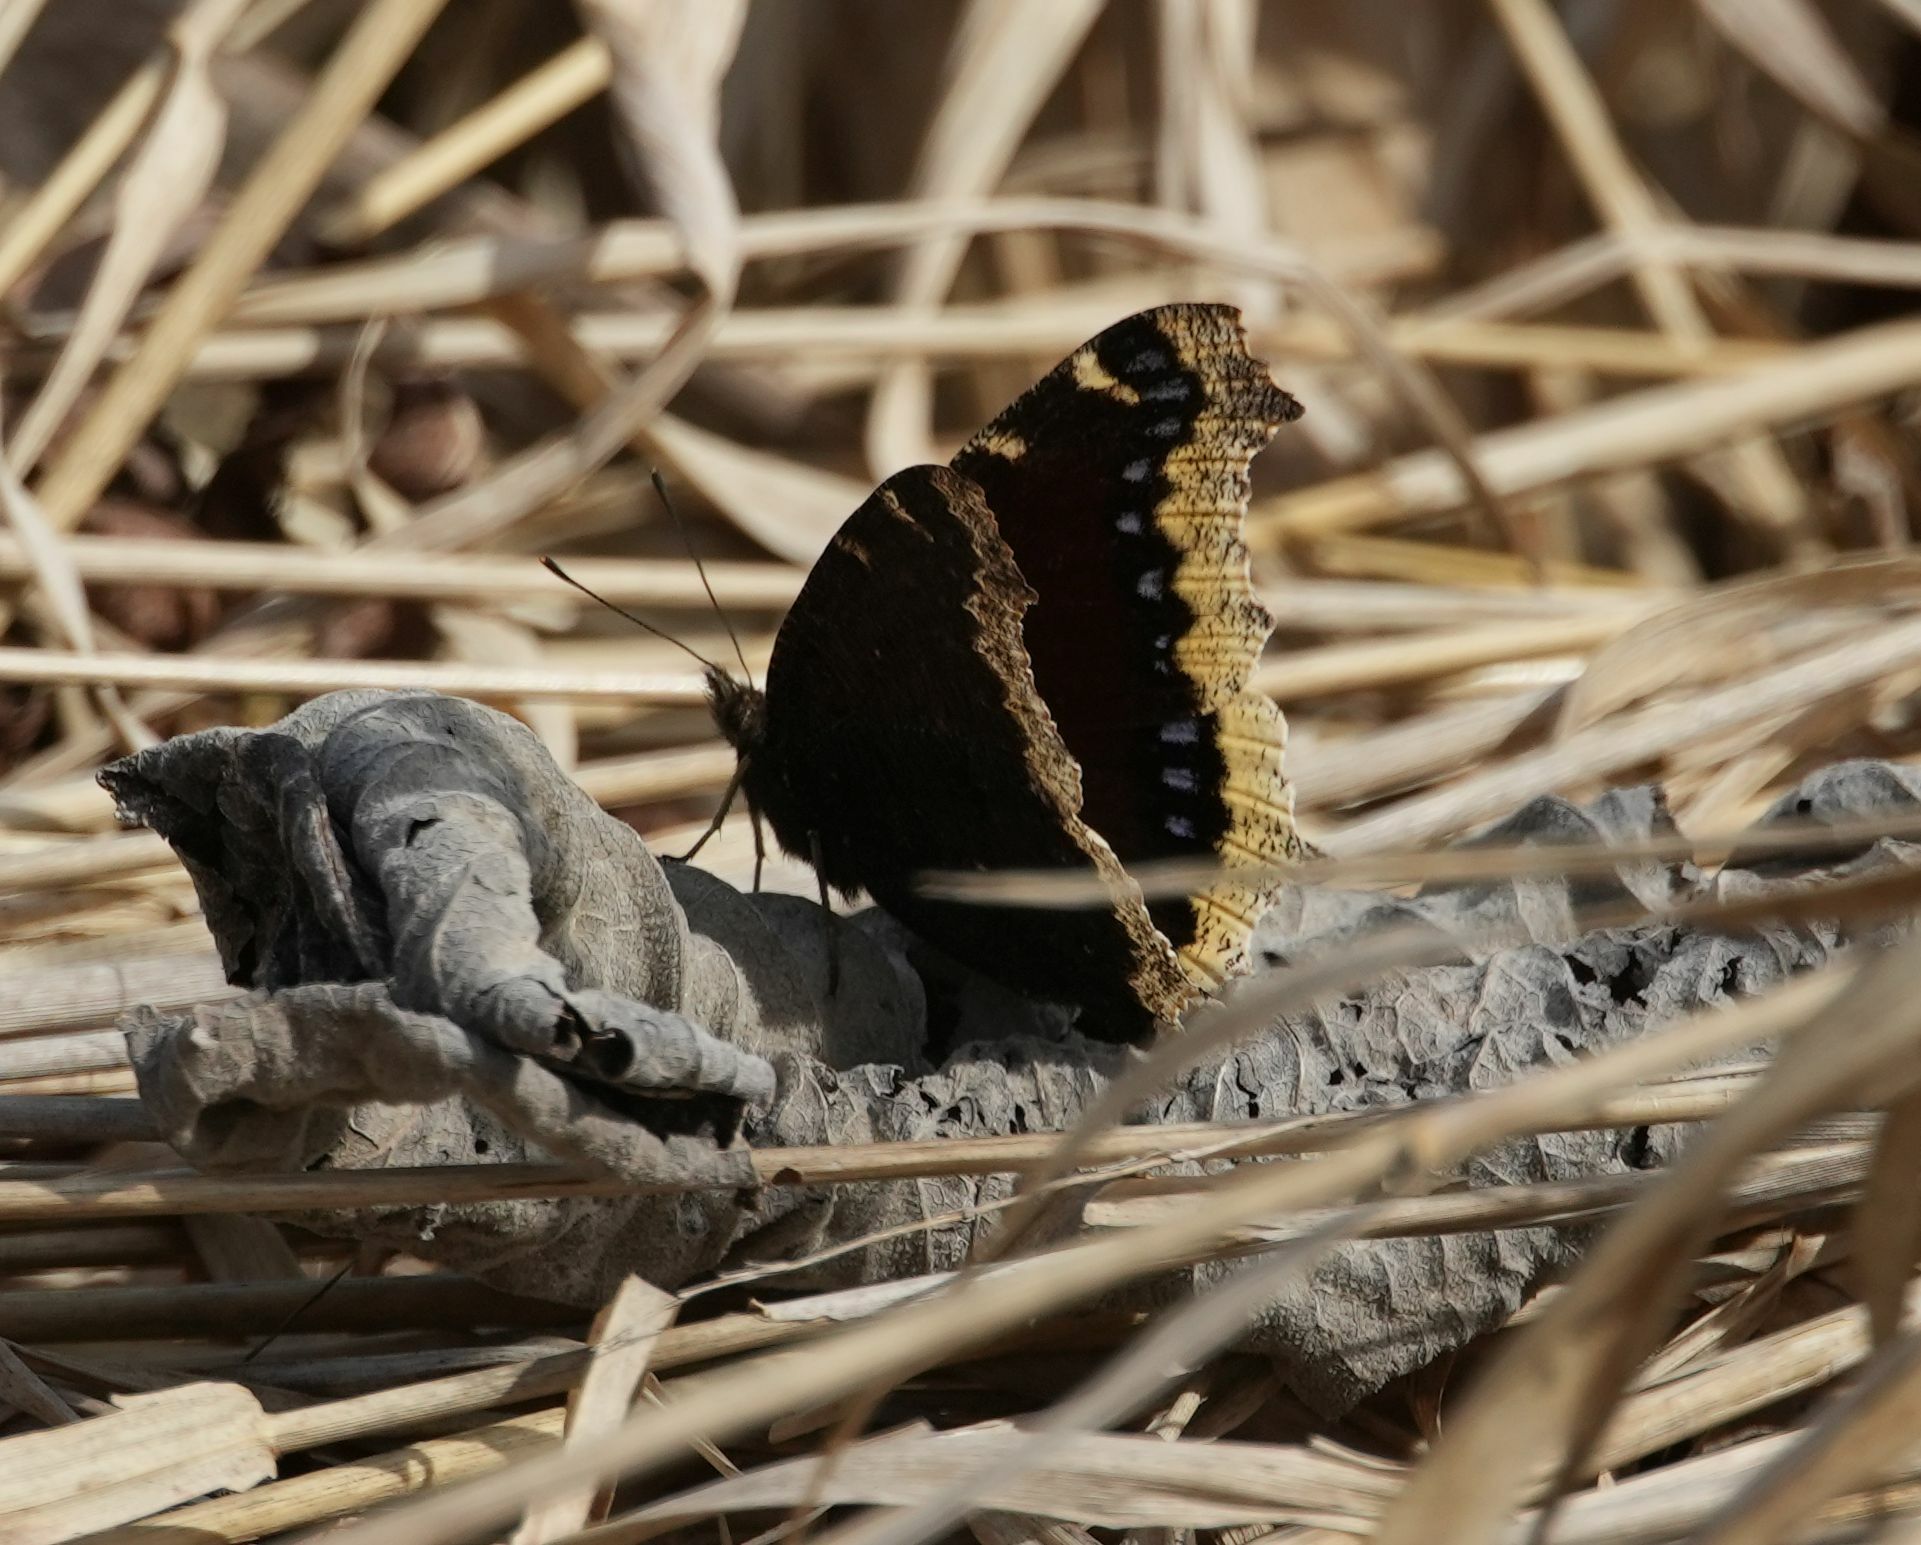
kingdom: Animalia
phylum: Arthropoda
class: Insecta
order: Lepidoptera
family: Nymphalidae
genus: Nymphalis
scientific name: Nymphalis antiopa
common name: Camberwell beauty
